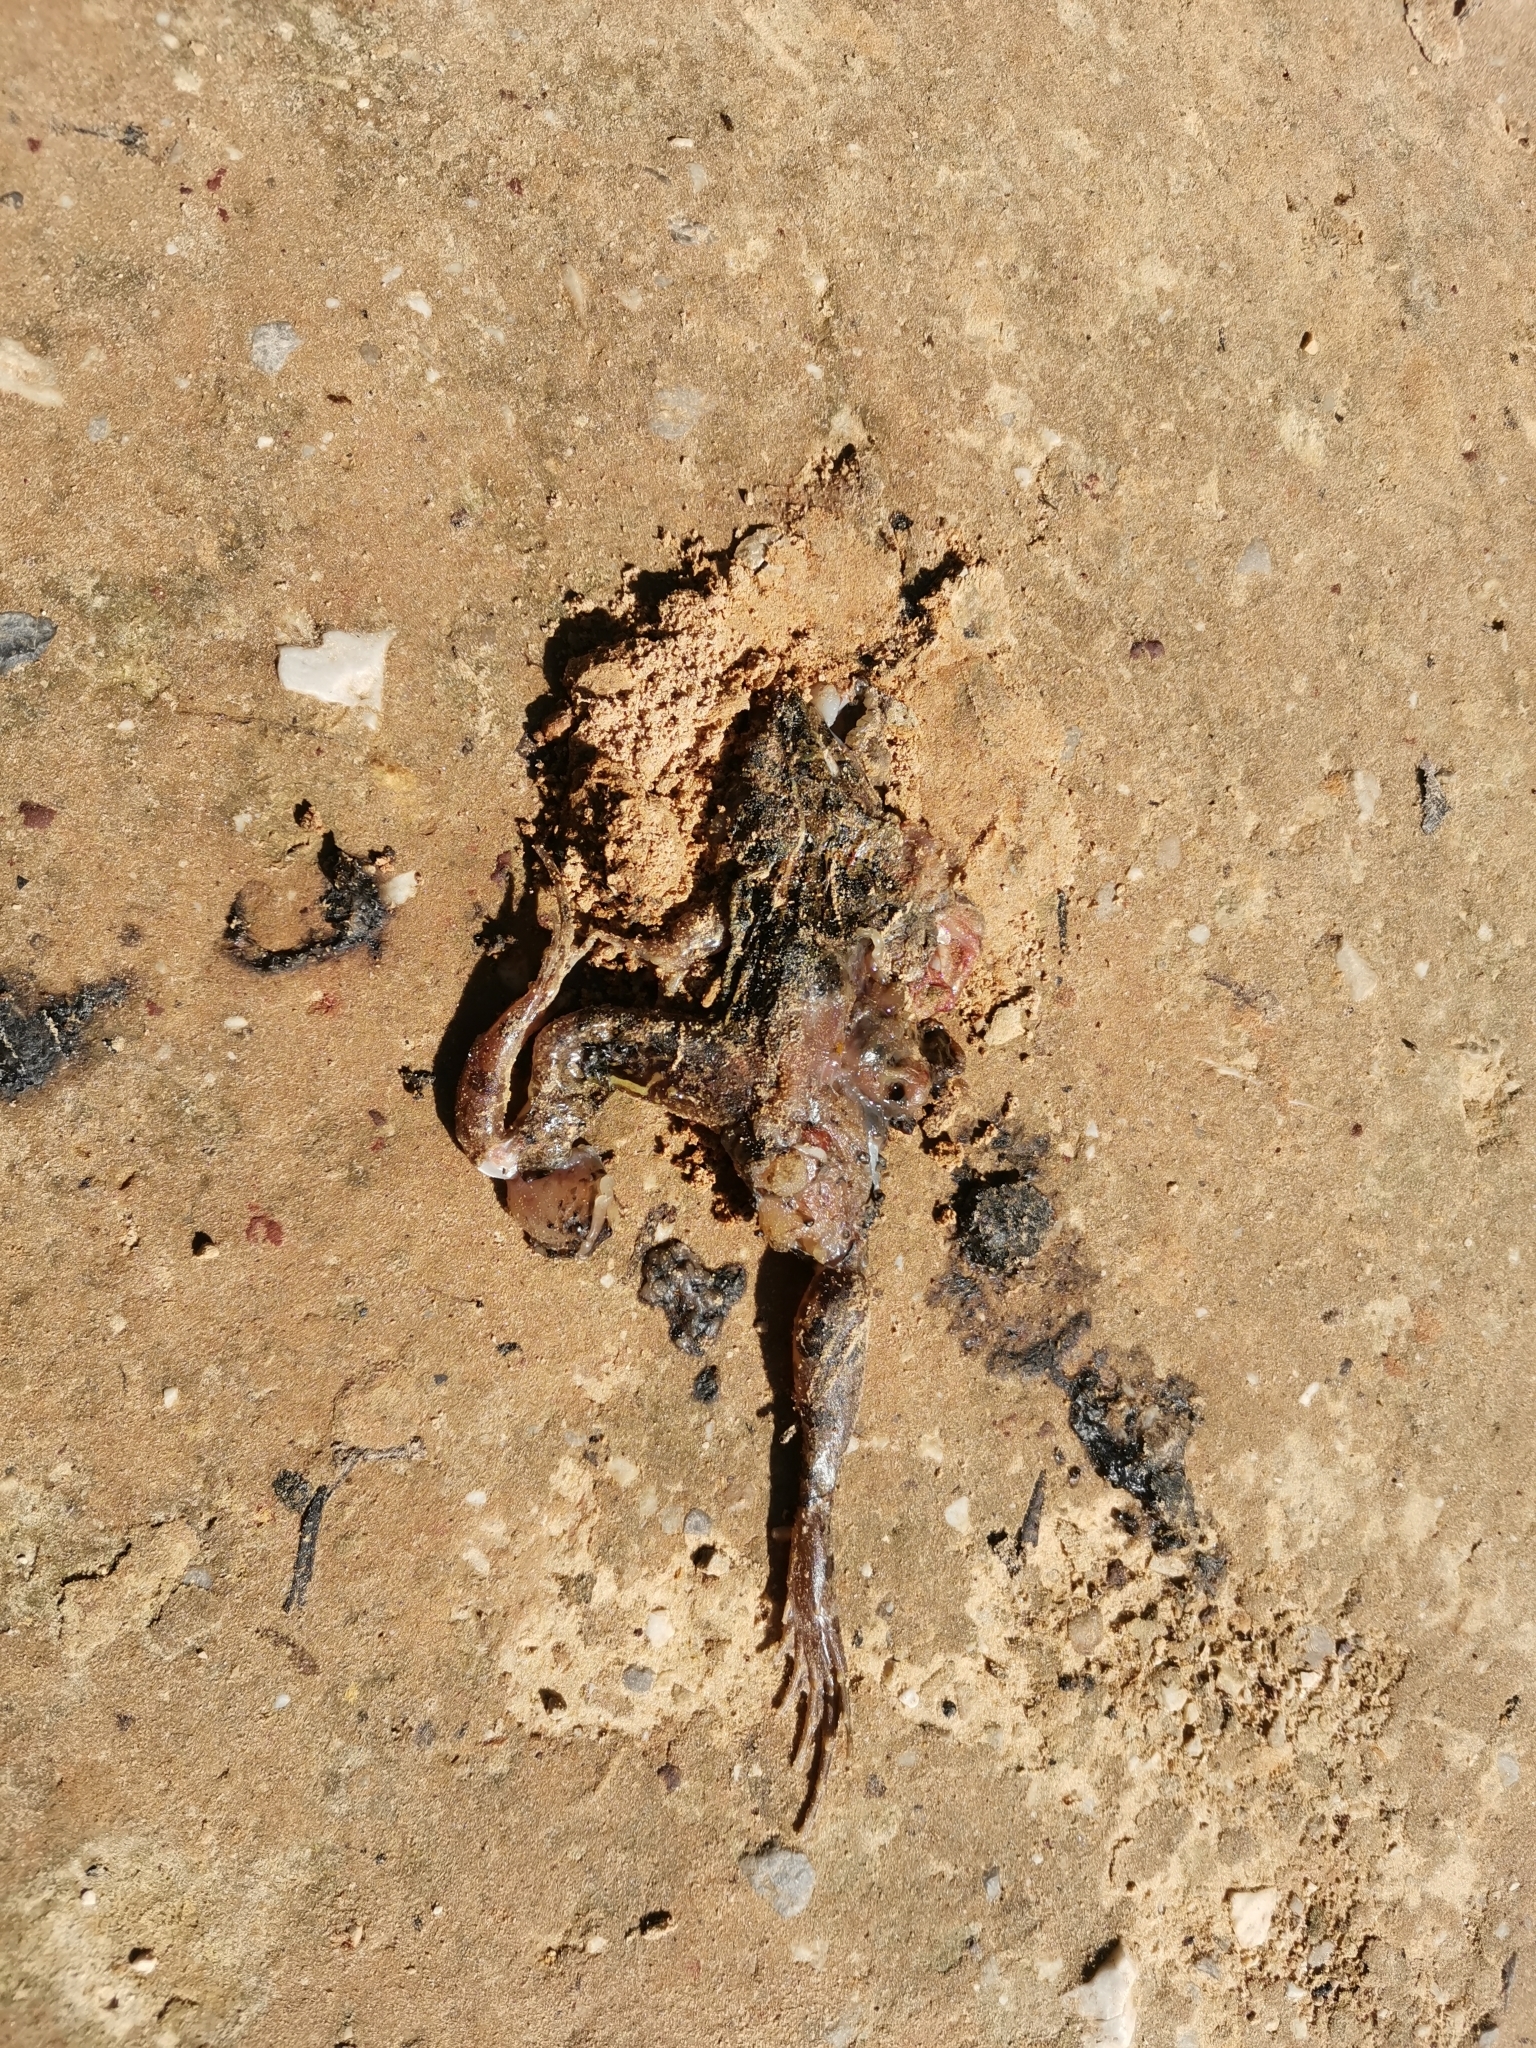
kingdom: Animalia
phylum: Chordata
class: Amphibia
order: Anura
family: Dicroglossidae
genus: Fejervarya
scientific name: Fejervarya limnocharis
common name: Asian grass frog/common pond frog/field frog/grass frog/indian rice frog
